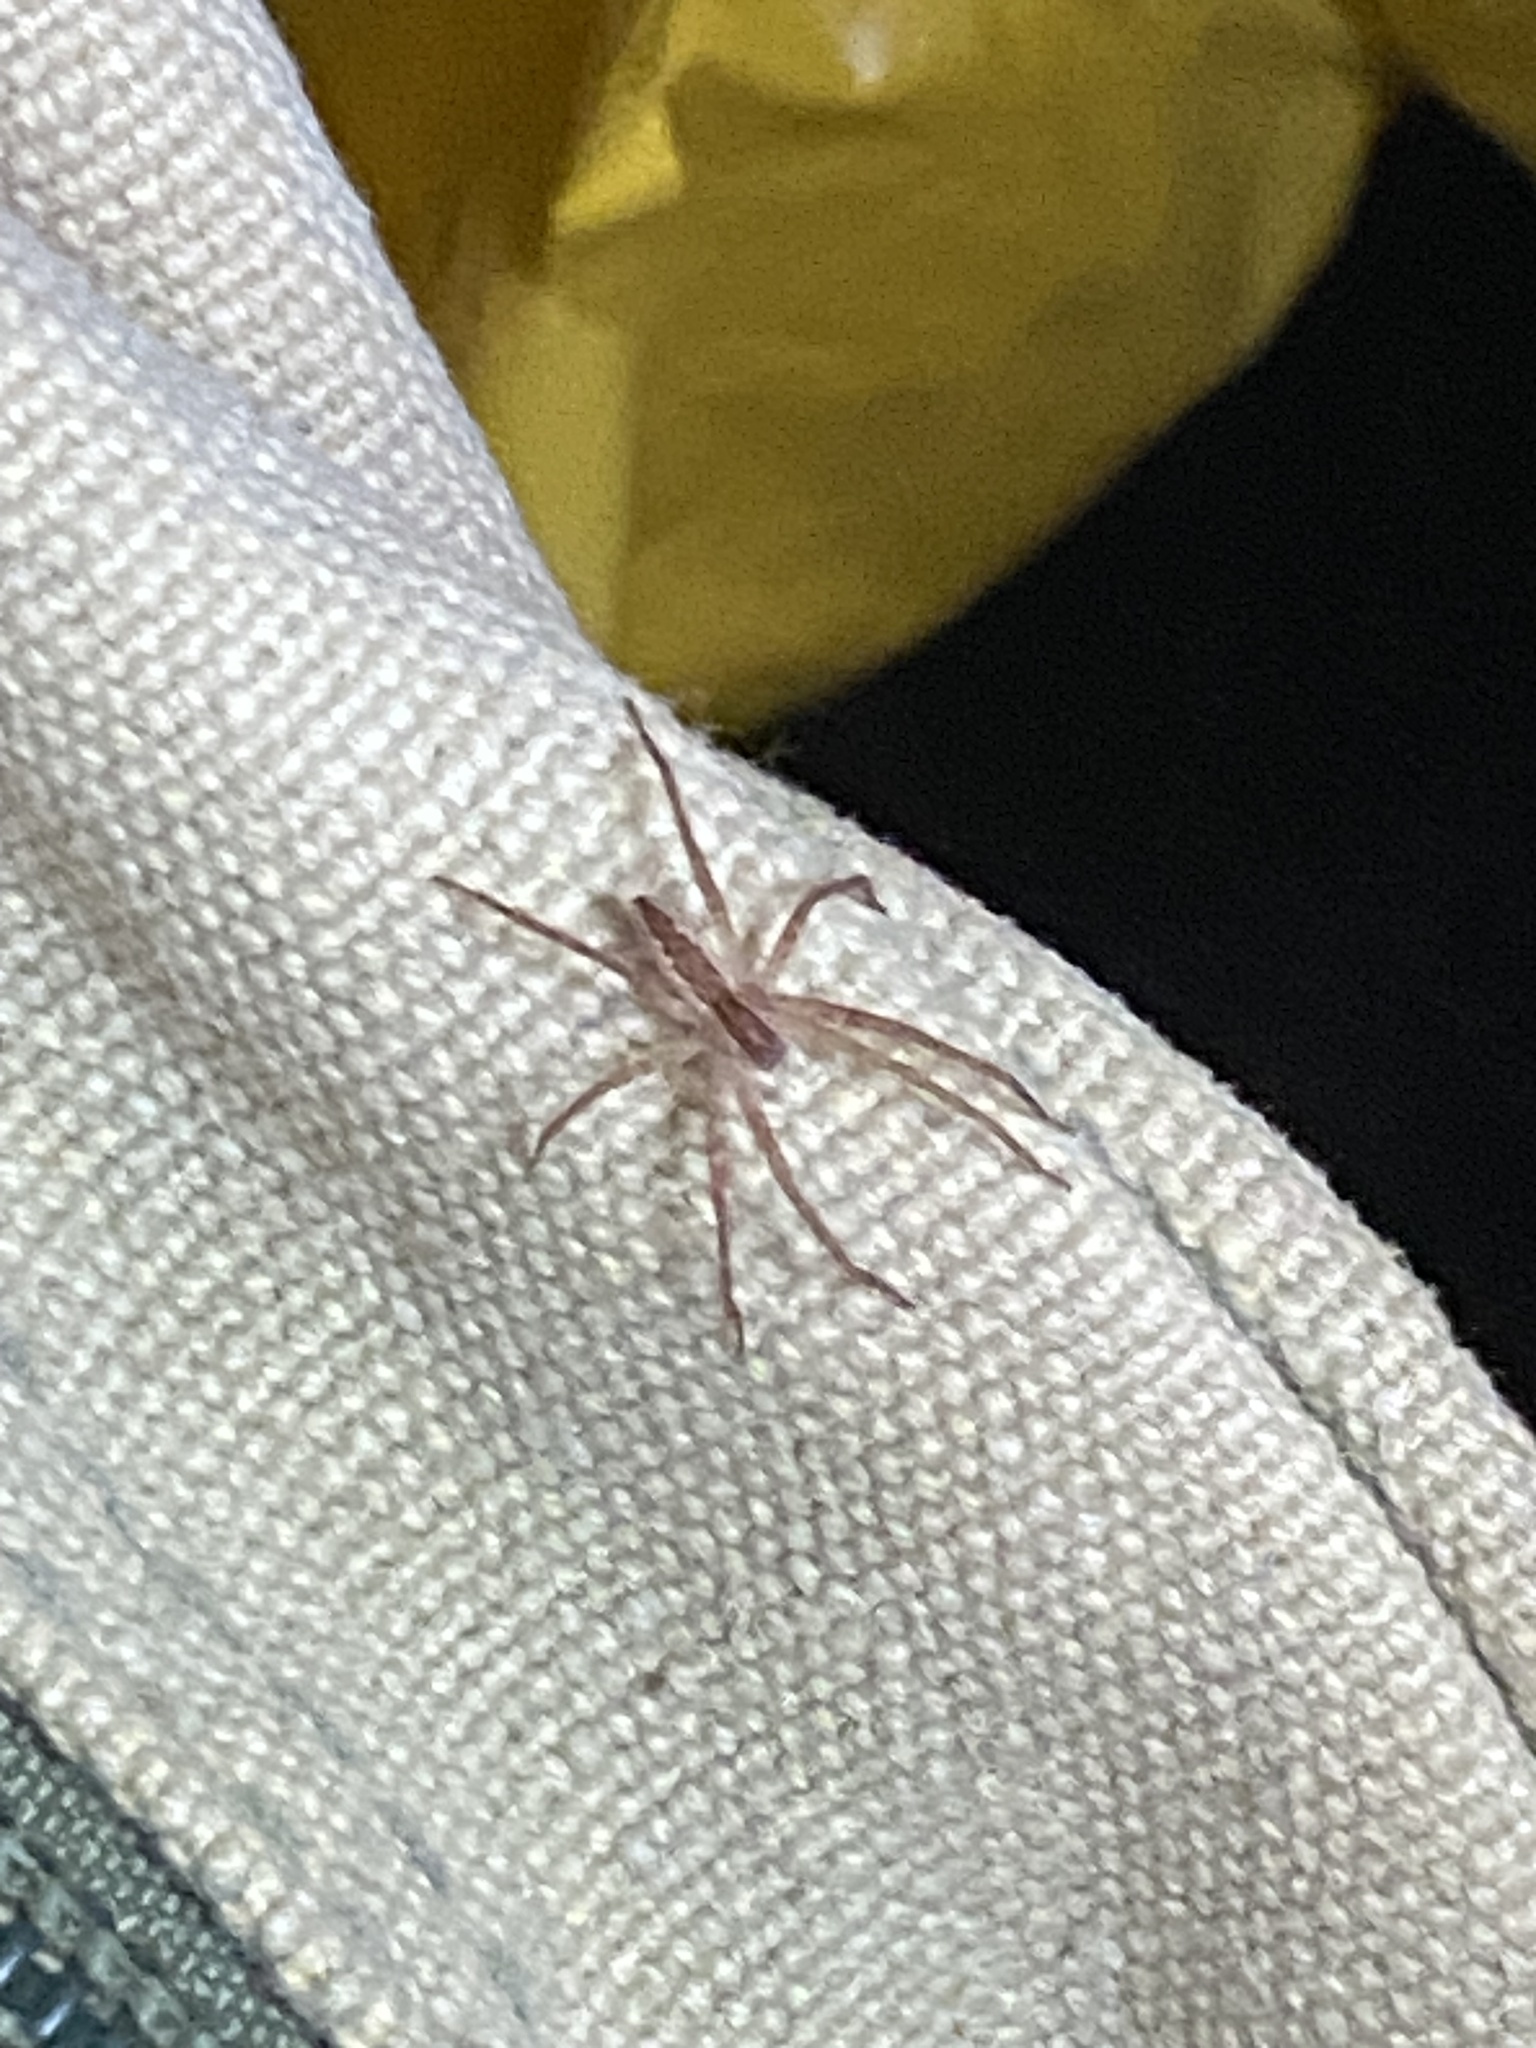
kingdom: Animalia
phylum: Arthropoda
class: Arachnida
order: Araneae
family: Pisauridae
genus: Pisaurina
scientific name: Pisaurina mira
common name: American nursery web spider
